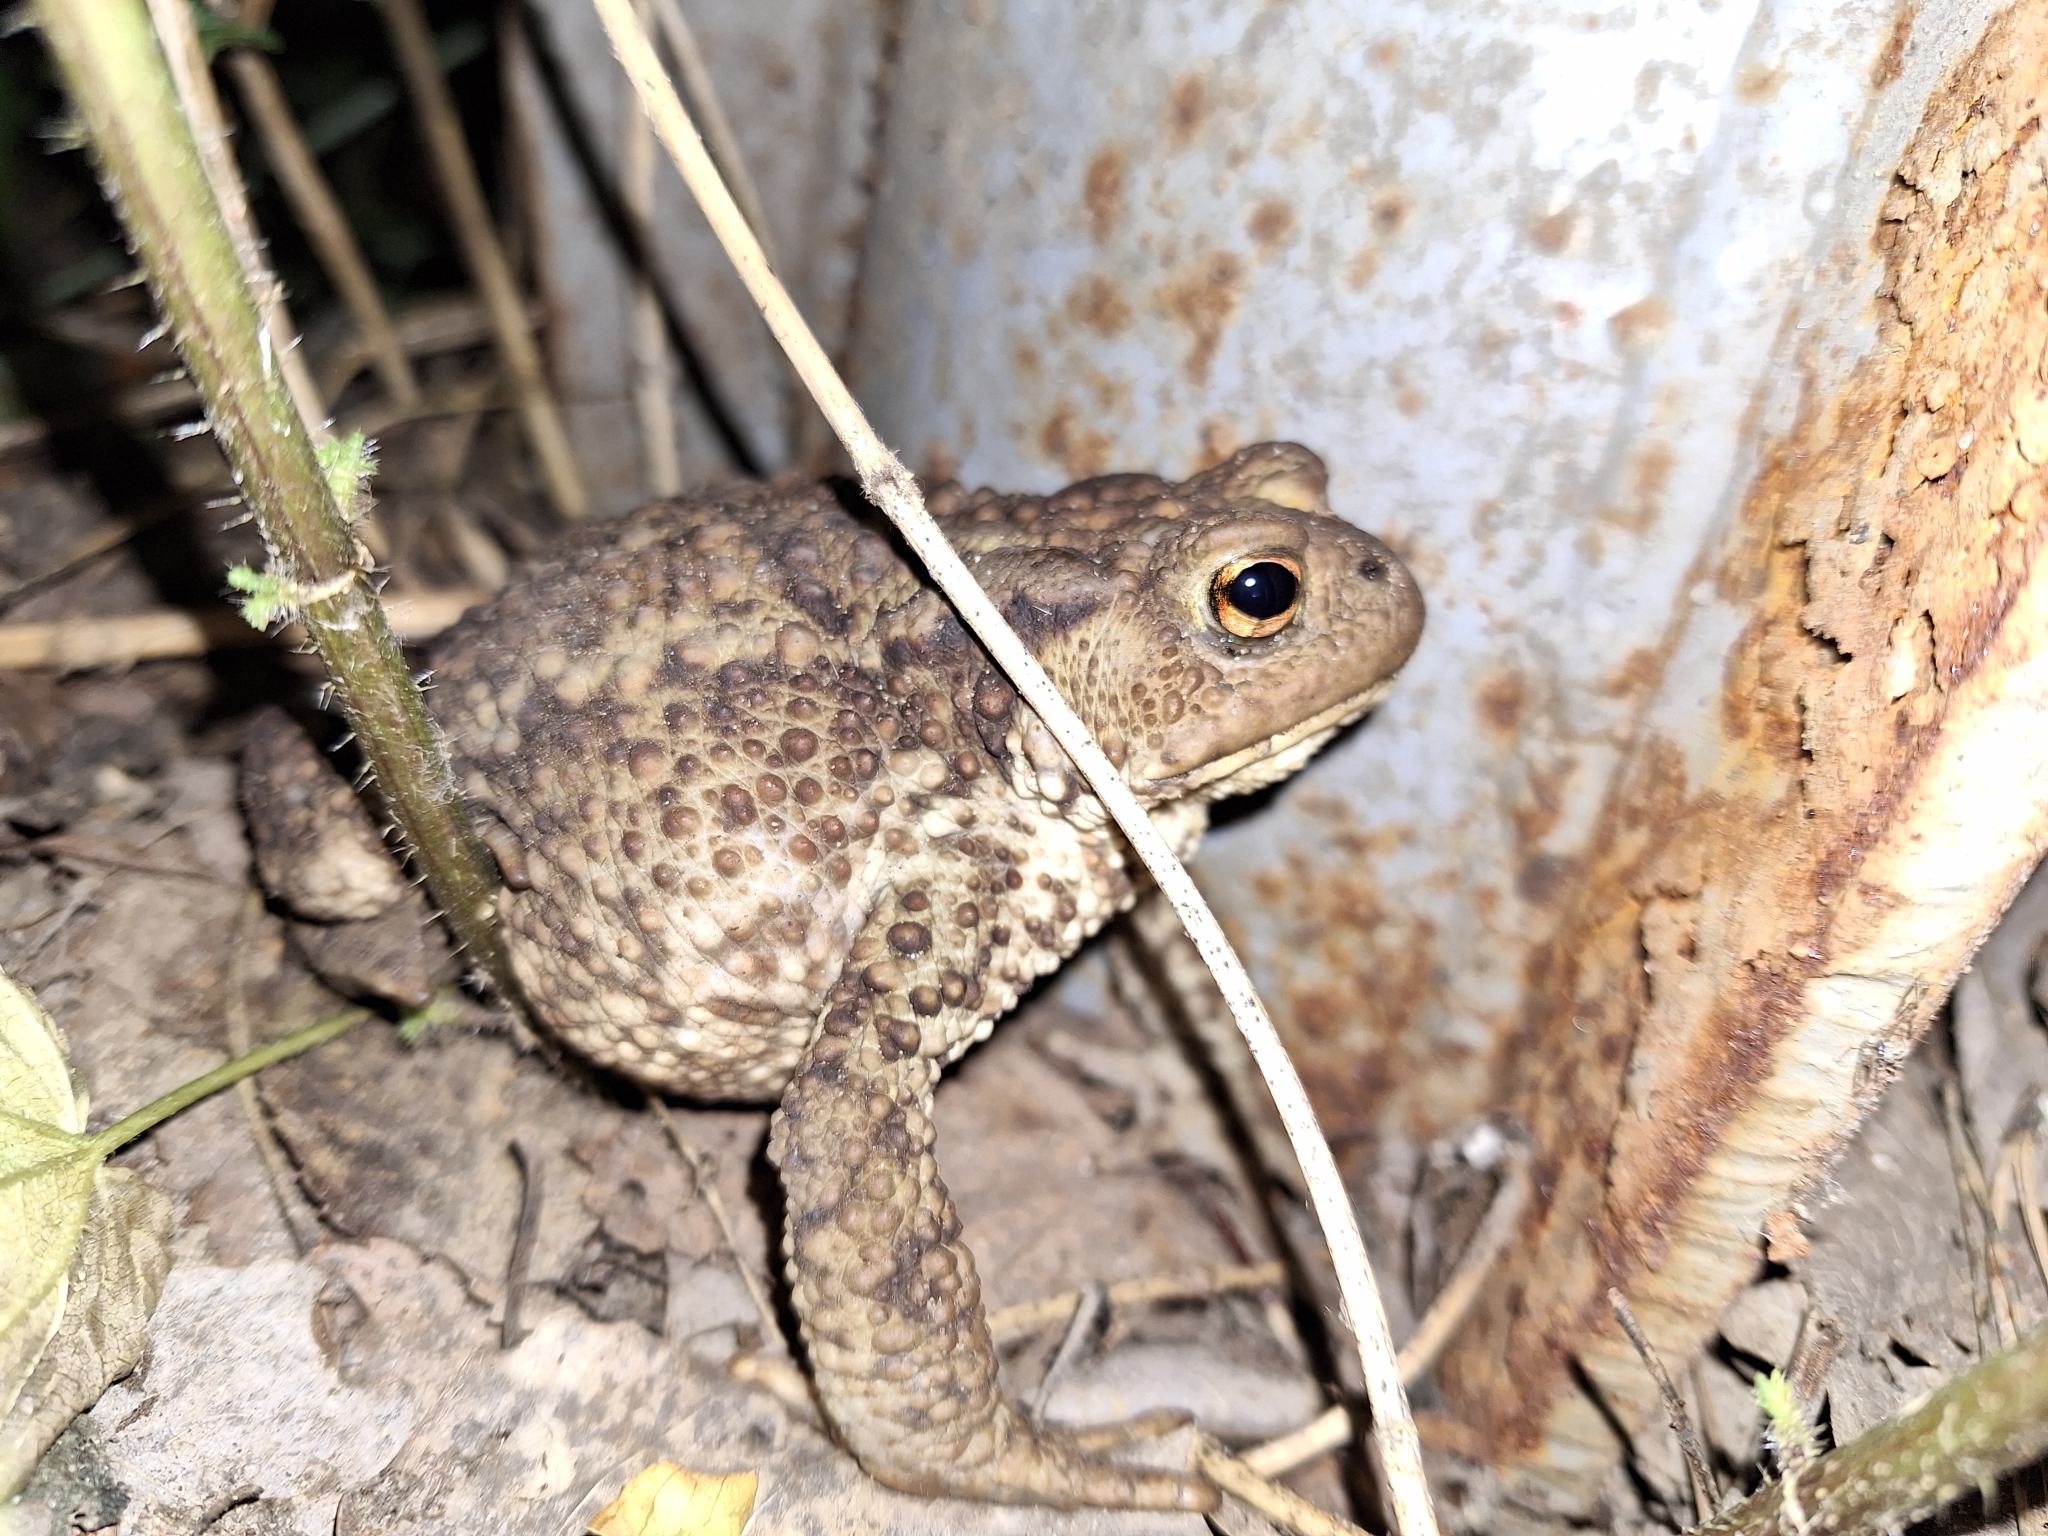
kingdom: Animalia
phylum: Chordata
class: Amphibia
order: Anura
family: Bufonidae
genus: Bufo
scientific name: Bufo bufo
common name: Common toad
